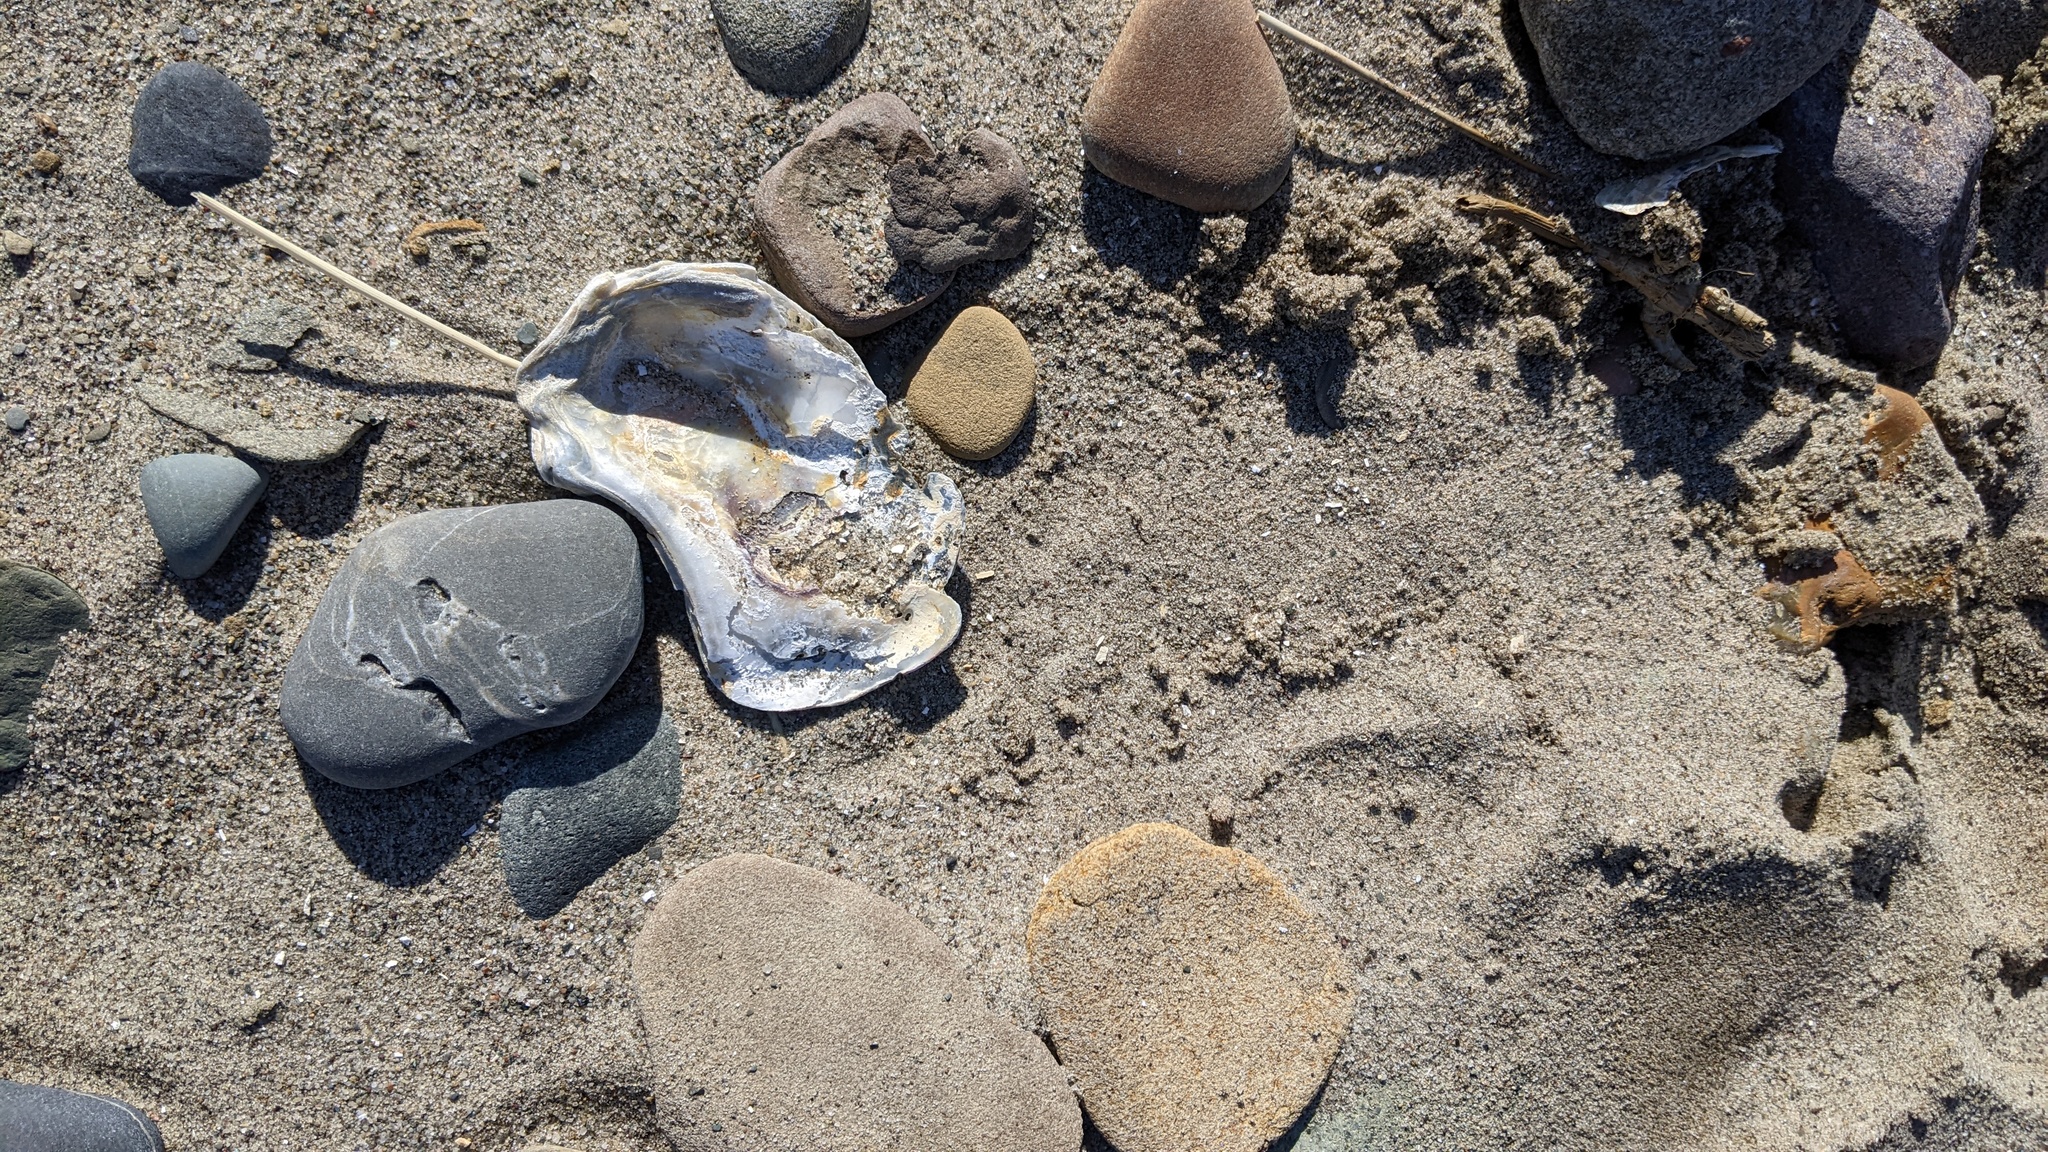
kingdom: Animalia
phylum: Mollusca
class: Bivalvia
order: Ostreida
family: Ostreidae
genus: Crassostrea
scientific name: Crassostrea virginica
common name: American oyster
